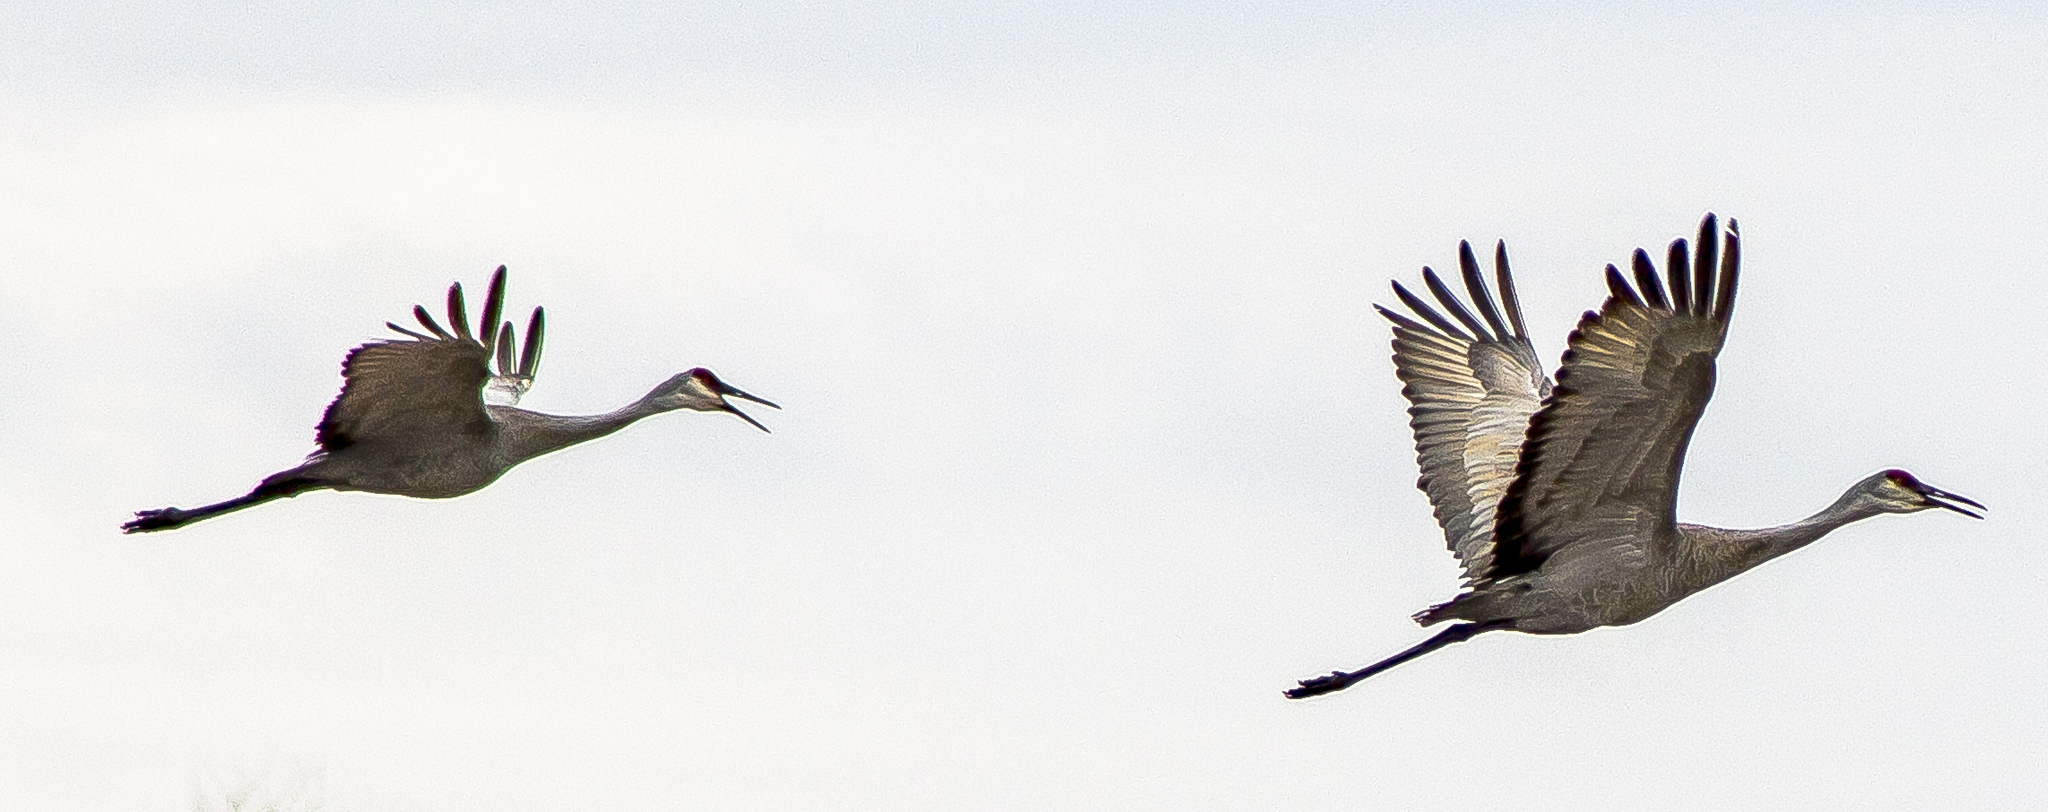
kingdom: Animalia
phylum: Chordata
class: Aves
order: Gruiformes
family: Gruidae
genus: Grus
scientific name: Grus canadensis
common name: Sandhill crane
